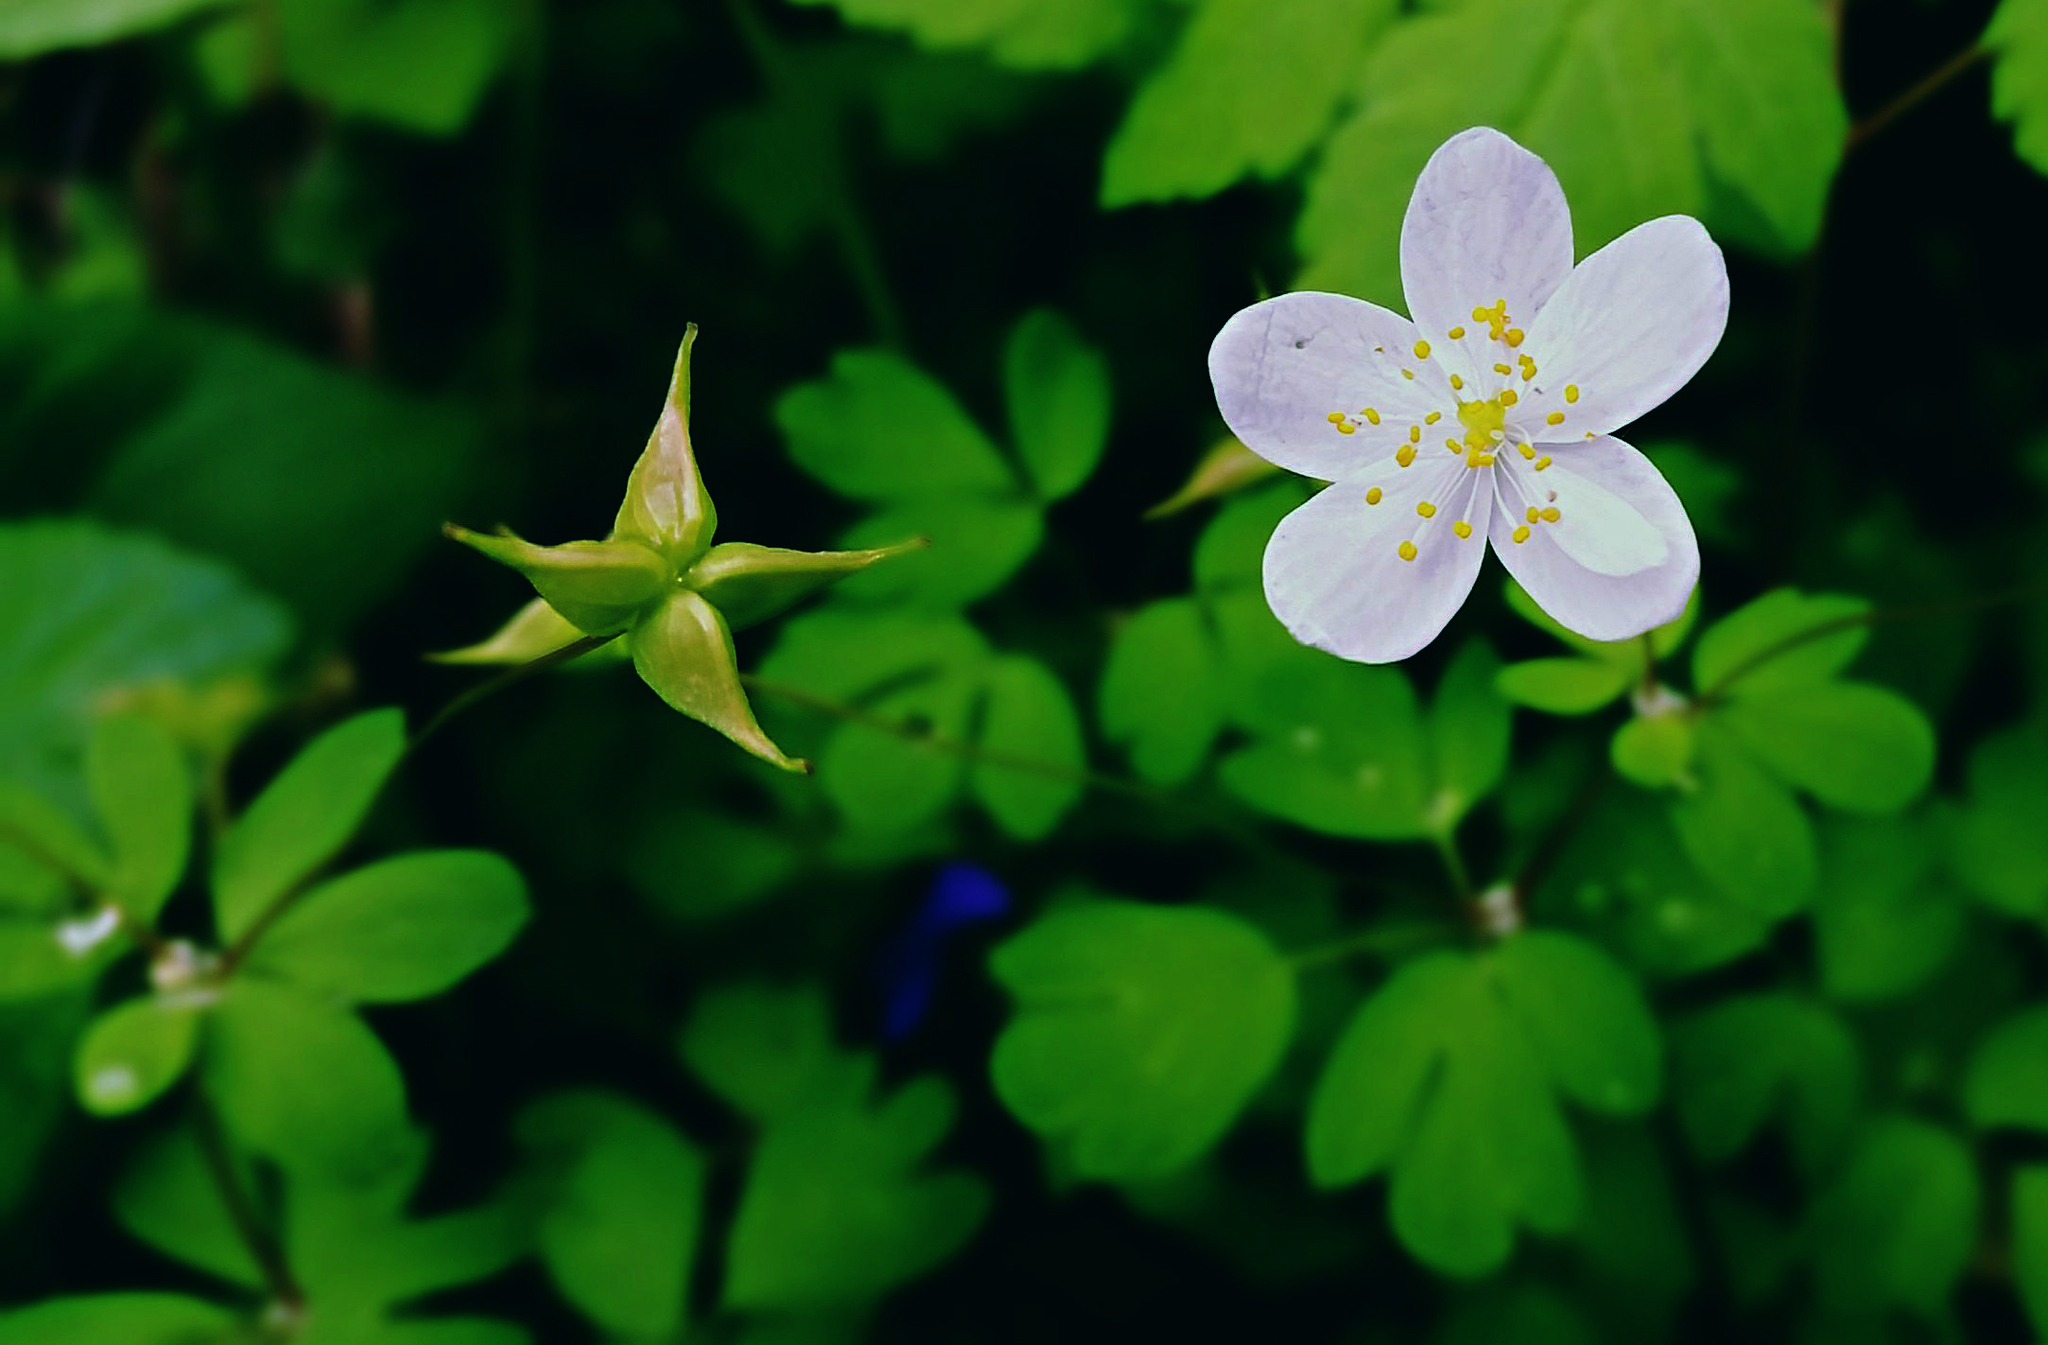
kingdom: Plantae
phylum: Tracheophyta
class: Magnoliopsida
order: Ranunculales
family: Ranunculaceae
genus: Enemion
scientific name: Enemion biternatum
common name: Eastern false rue-anemone
